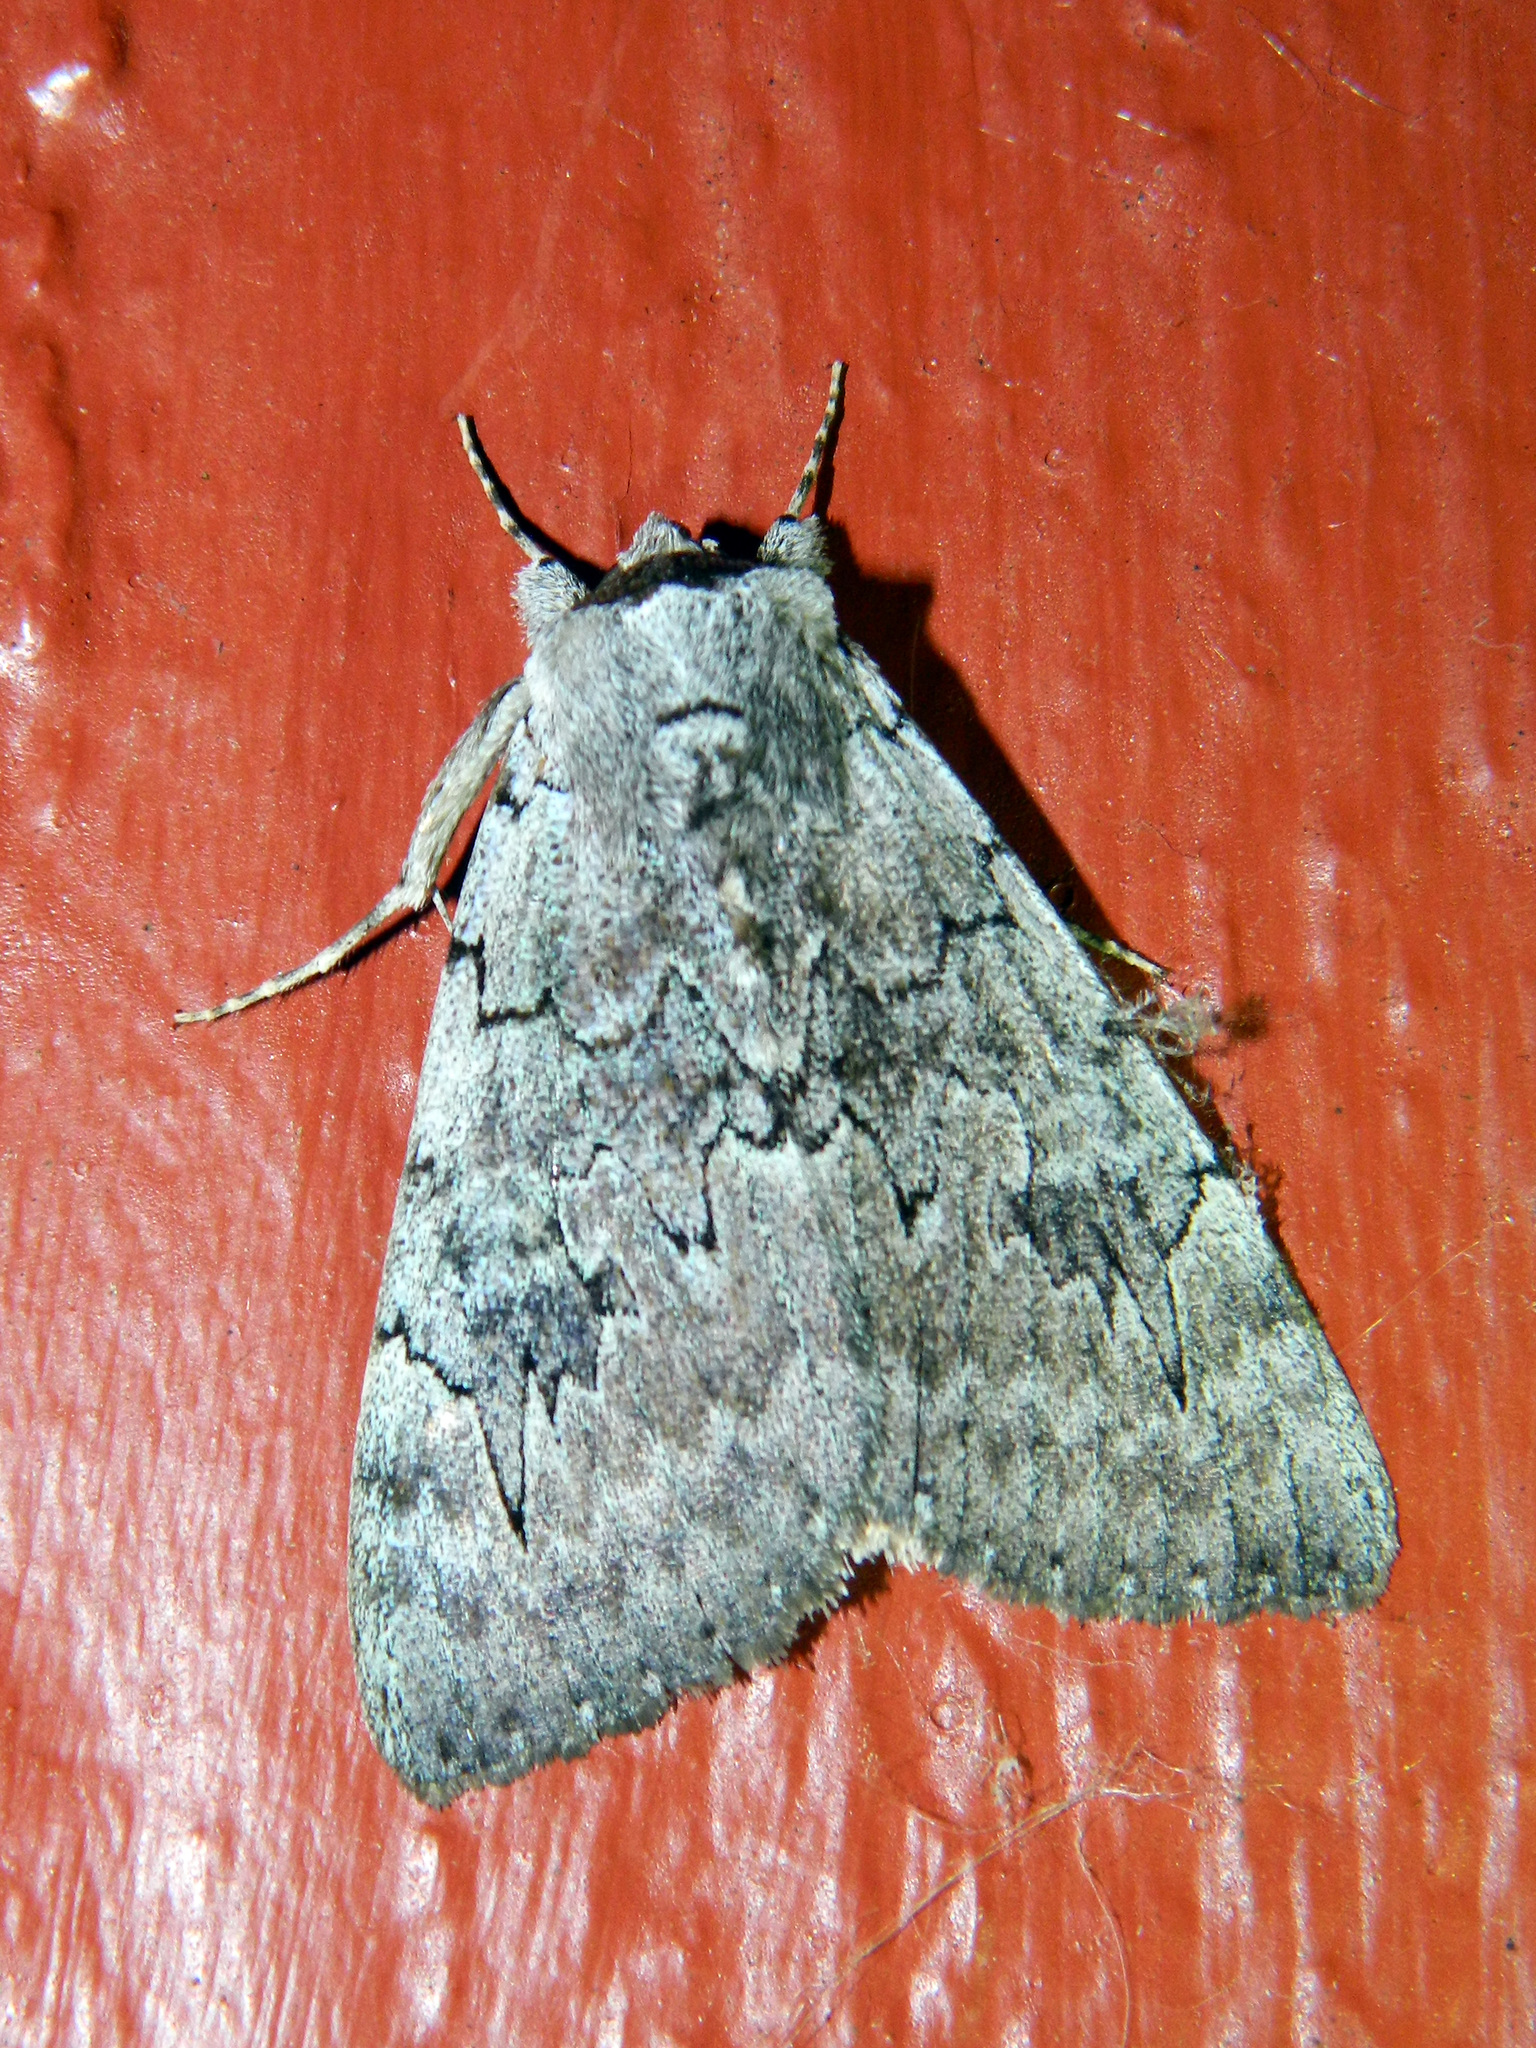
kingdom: Animalia
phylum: Arthropoda
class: Insecta
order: Lepidoptera
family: Erebidae
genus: Catocala
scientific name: Catocala concumbens
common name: Pink underwing
